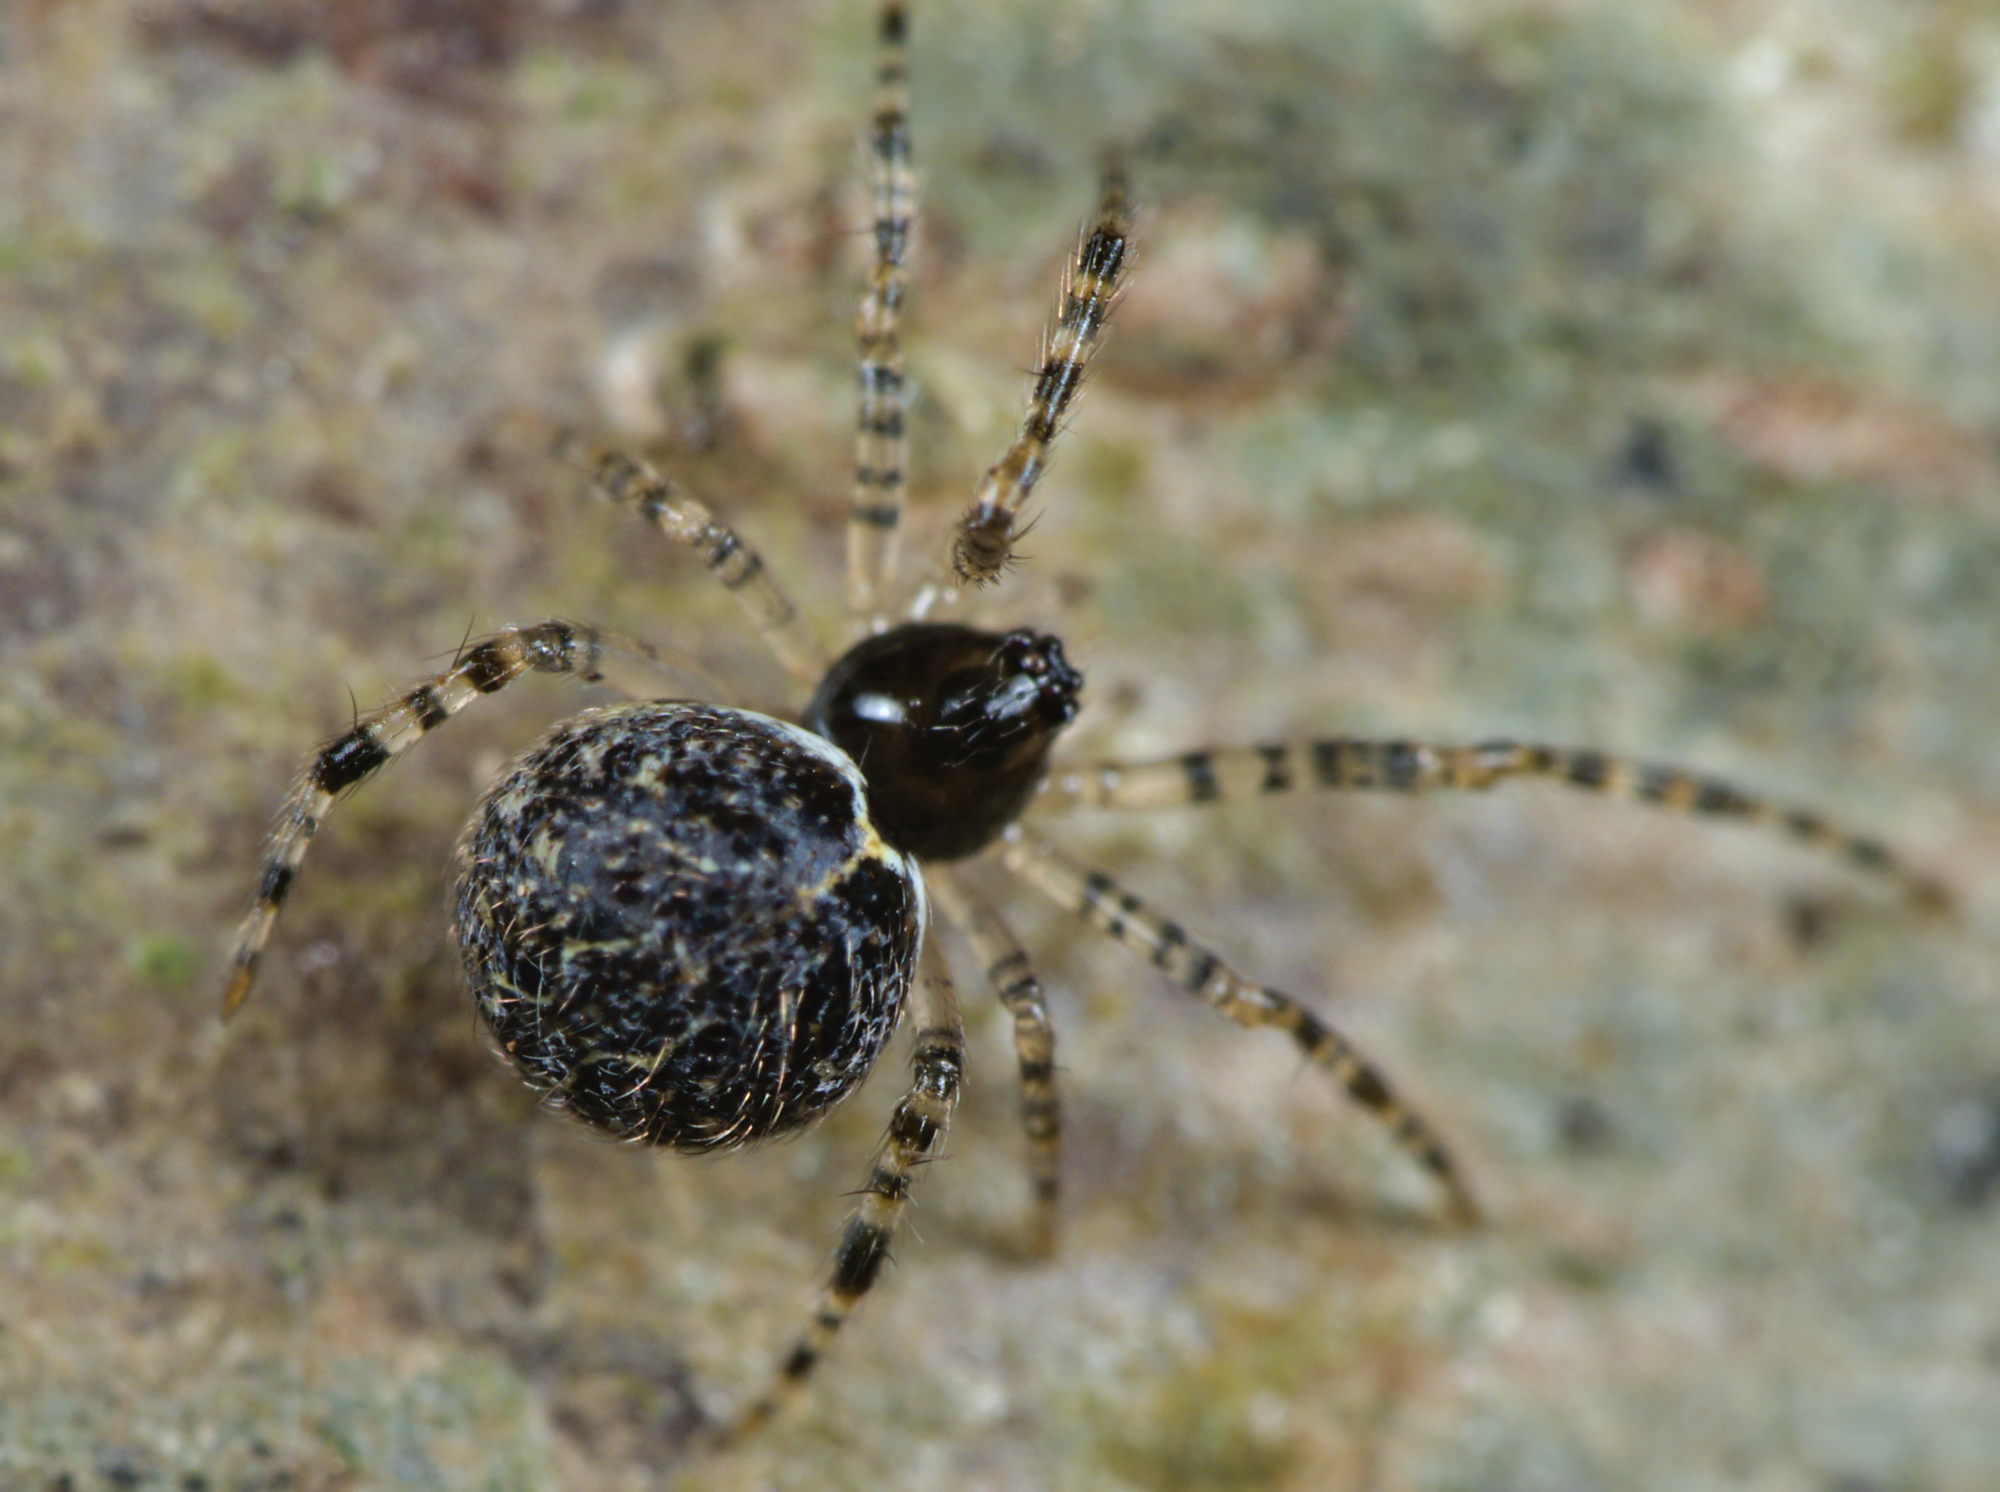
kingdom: Animalia
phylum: Arthropoda
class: Arachnida
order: Araneae
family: Theridiidae
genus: Dipoena
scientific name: Dipoena melanogaster
